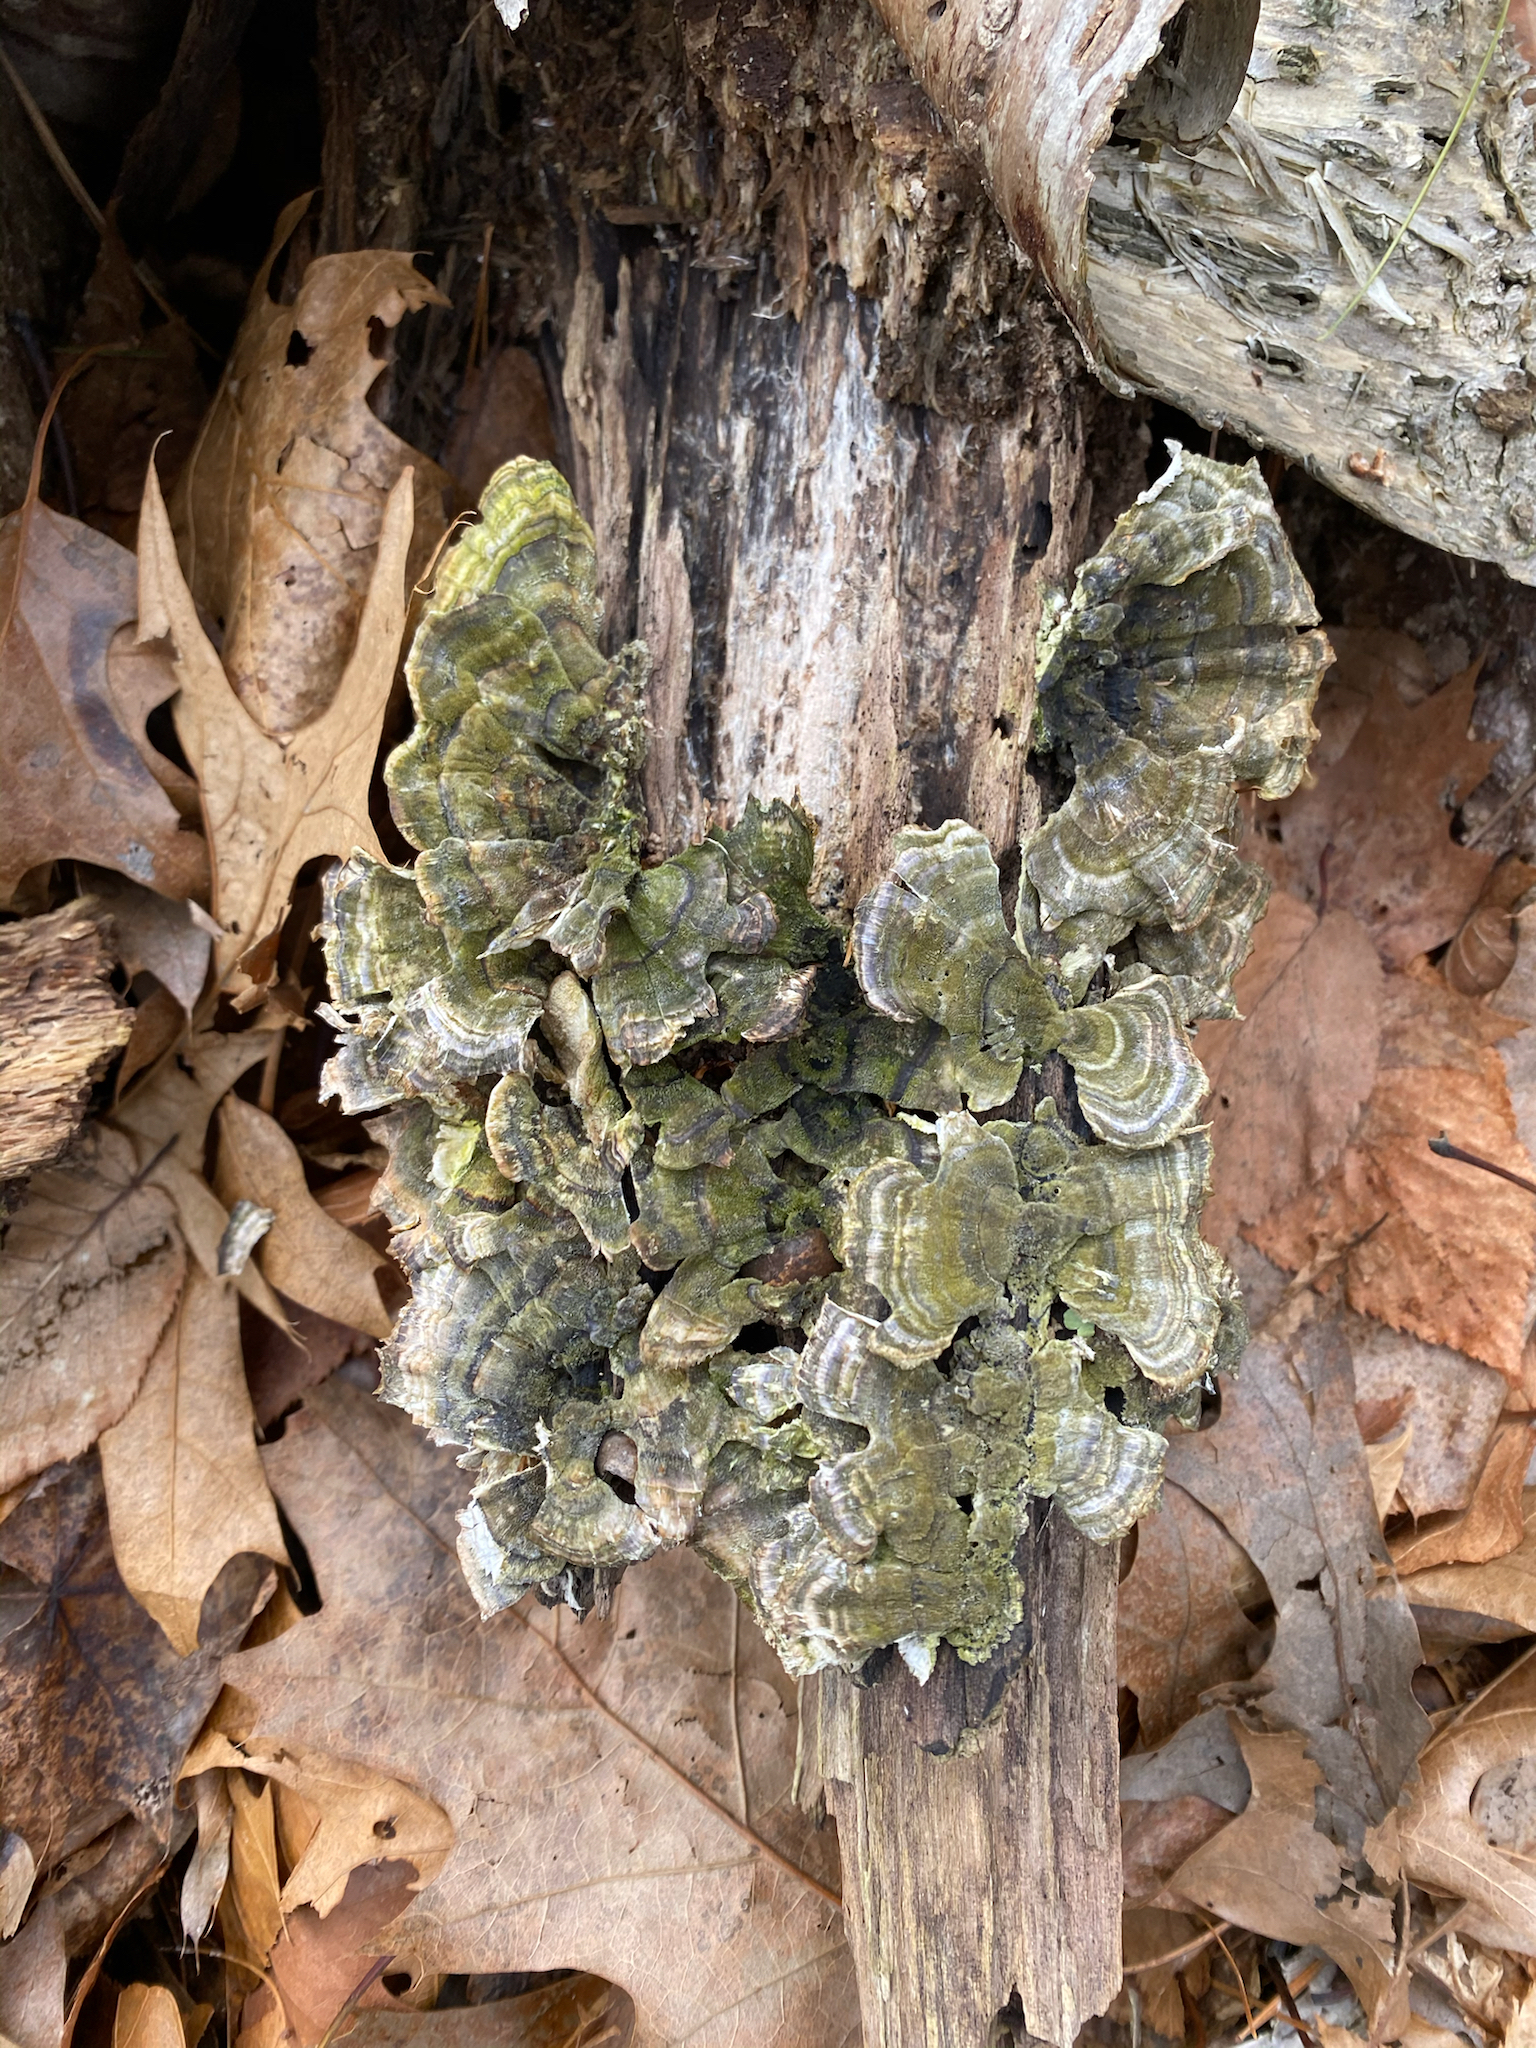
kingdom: Fungi
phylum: Basidiomycota
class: Agaricomycetes
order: Polyporales
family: Polyporaceae
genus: Trametes
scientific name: Trametes versicolor
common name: Turkeytail
